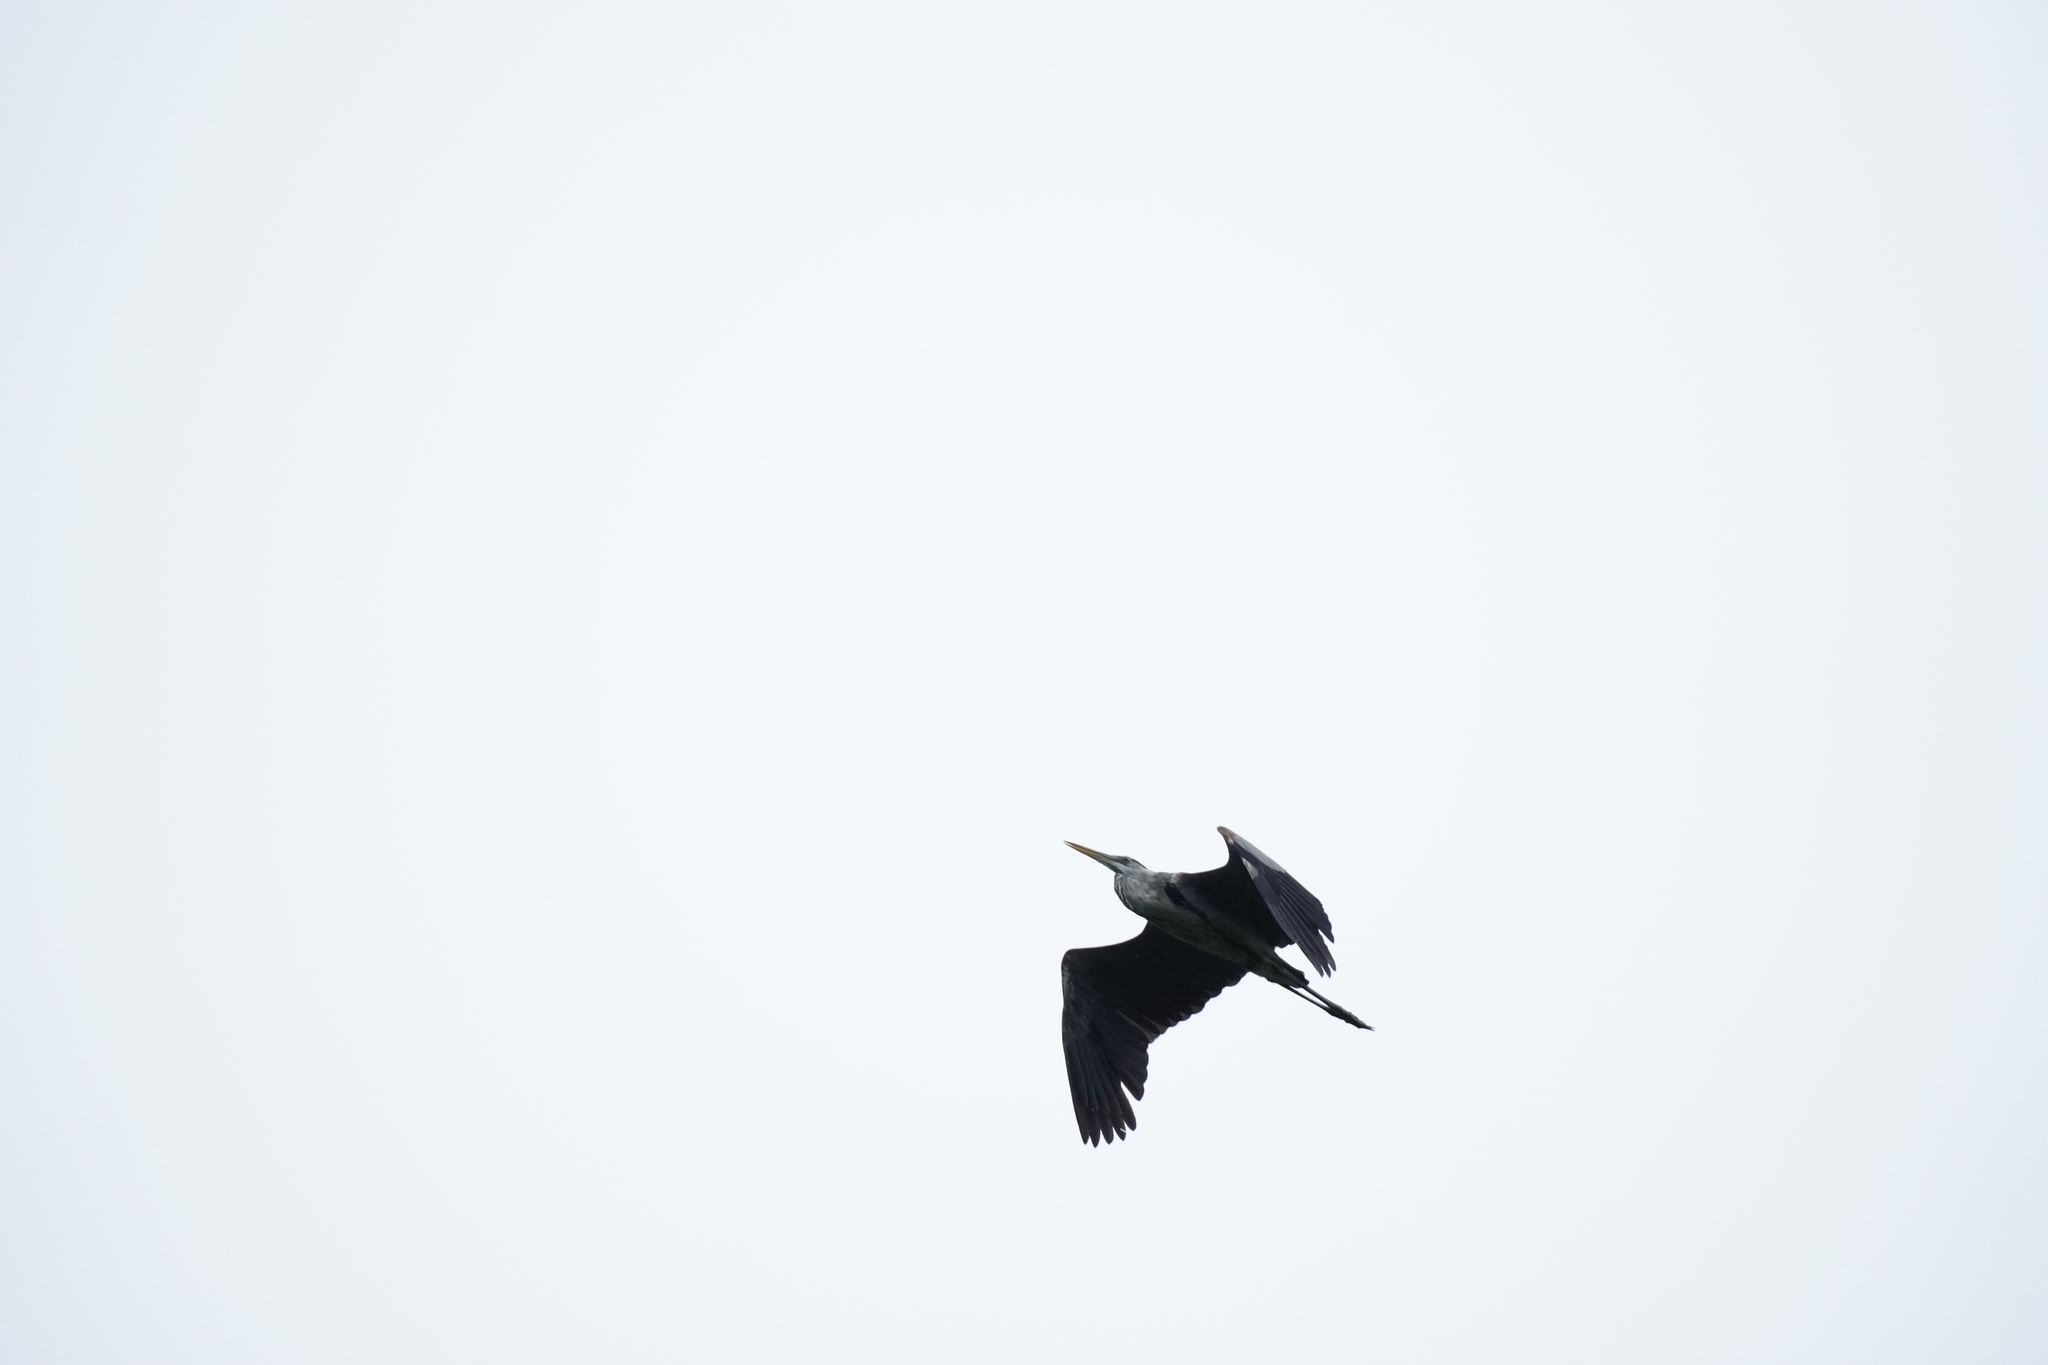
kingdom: Animalia
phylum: Chordata
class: Aves
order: Pelecaniformes
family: Ardeidae
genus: Ardea
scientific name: Ardea herodias
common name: Great blue heron
